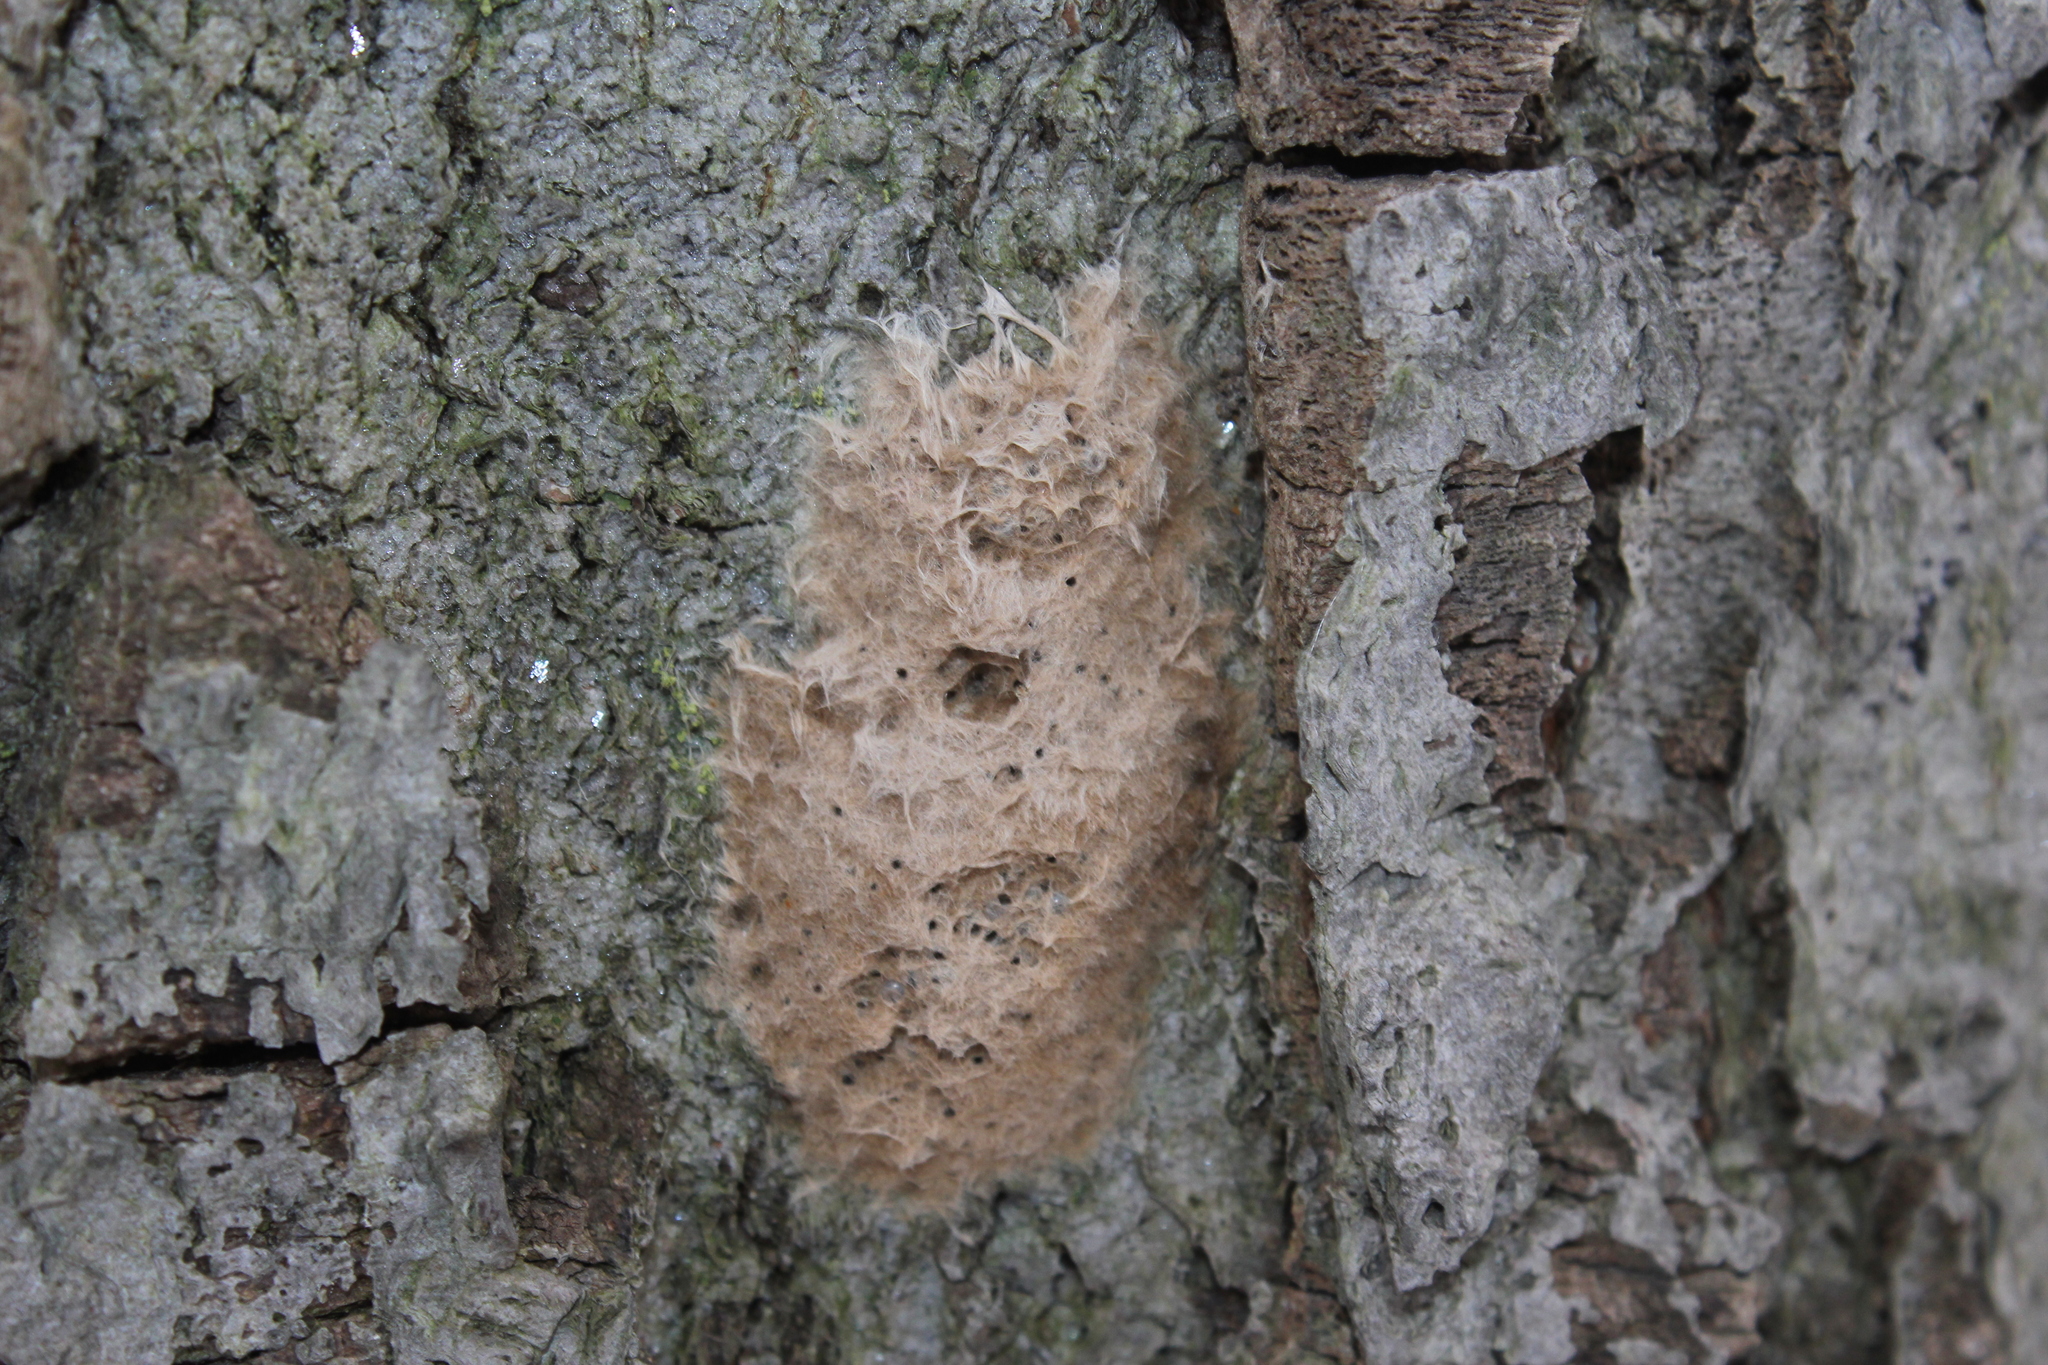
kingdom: Animalia
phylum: Arthropoda
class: Insecta
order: Hymenoptera
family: Encyrtidae
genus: Ooencyrtus
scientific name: Ooencyrtus kuvanae
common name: Wasp
